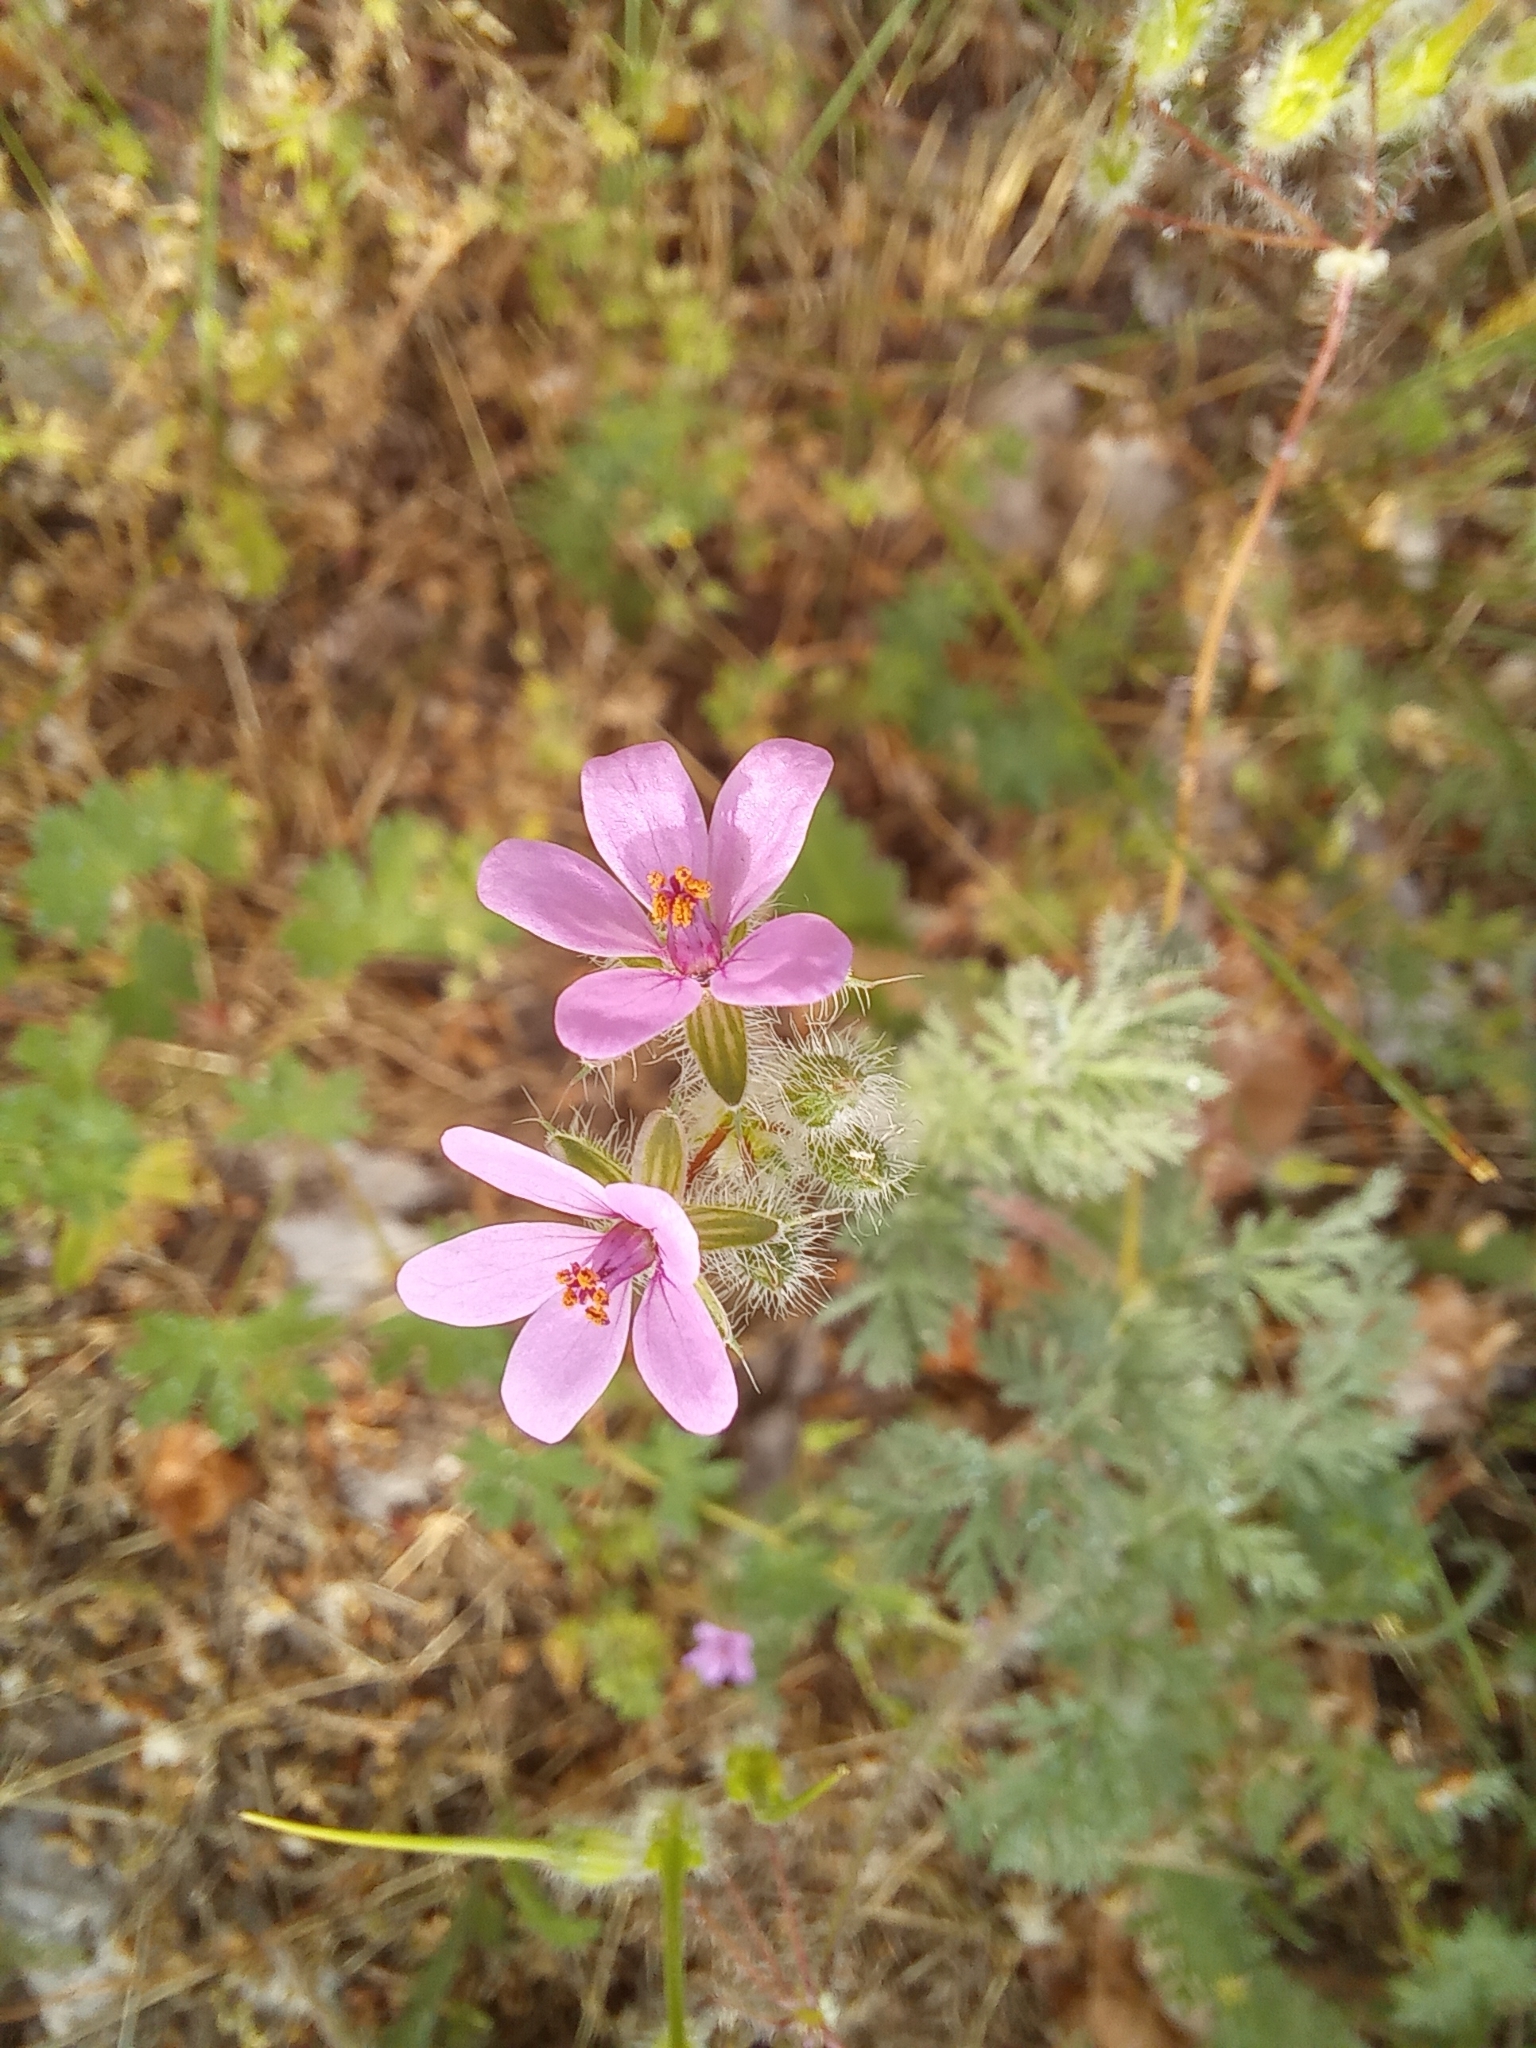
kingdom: Plantae
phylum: Tracheophyta
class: Magnoliopsida
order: Geraniales
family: Geraniaceae
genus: Erodium
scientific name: Erodium cicutarium
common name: Common stork's-bill
